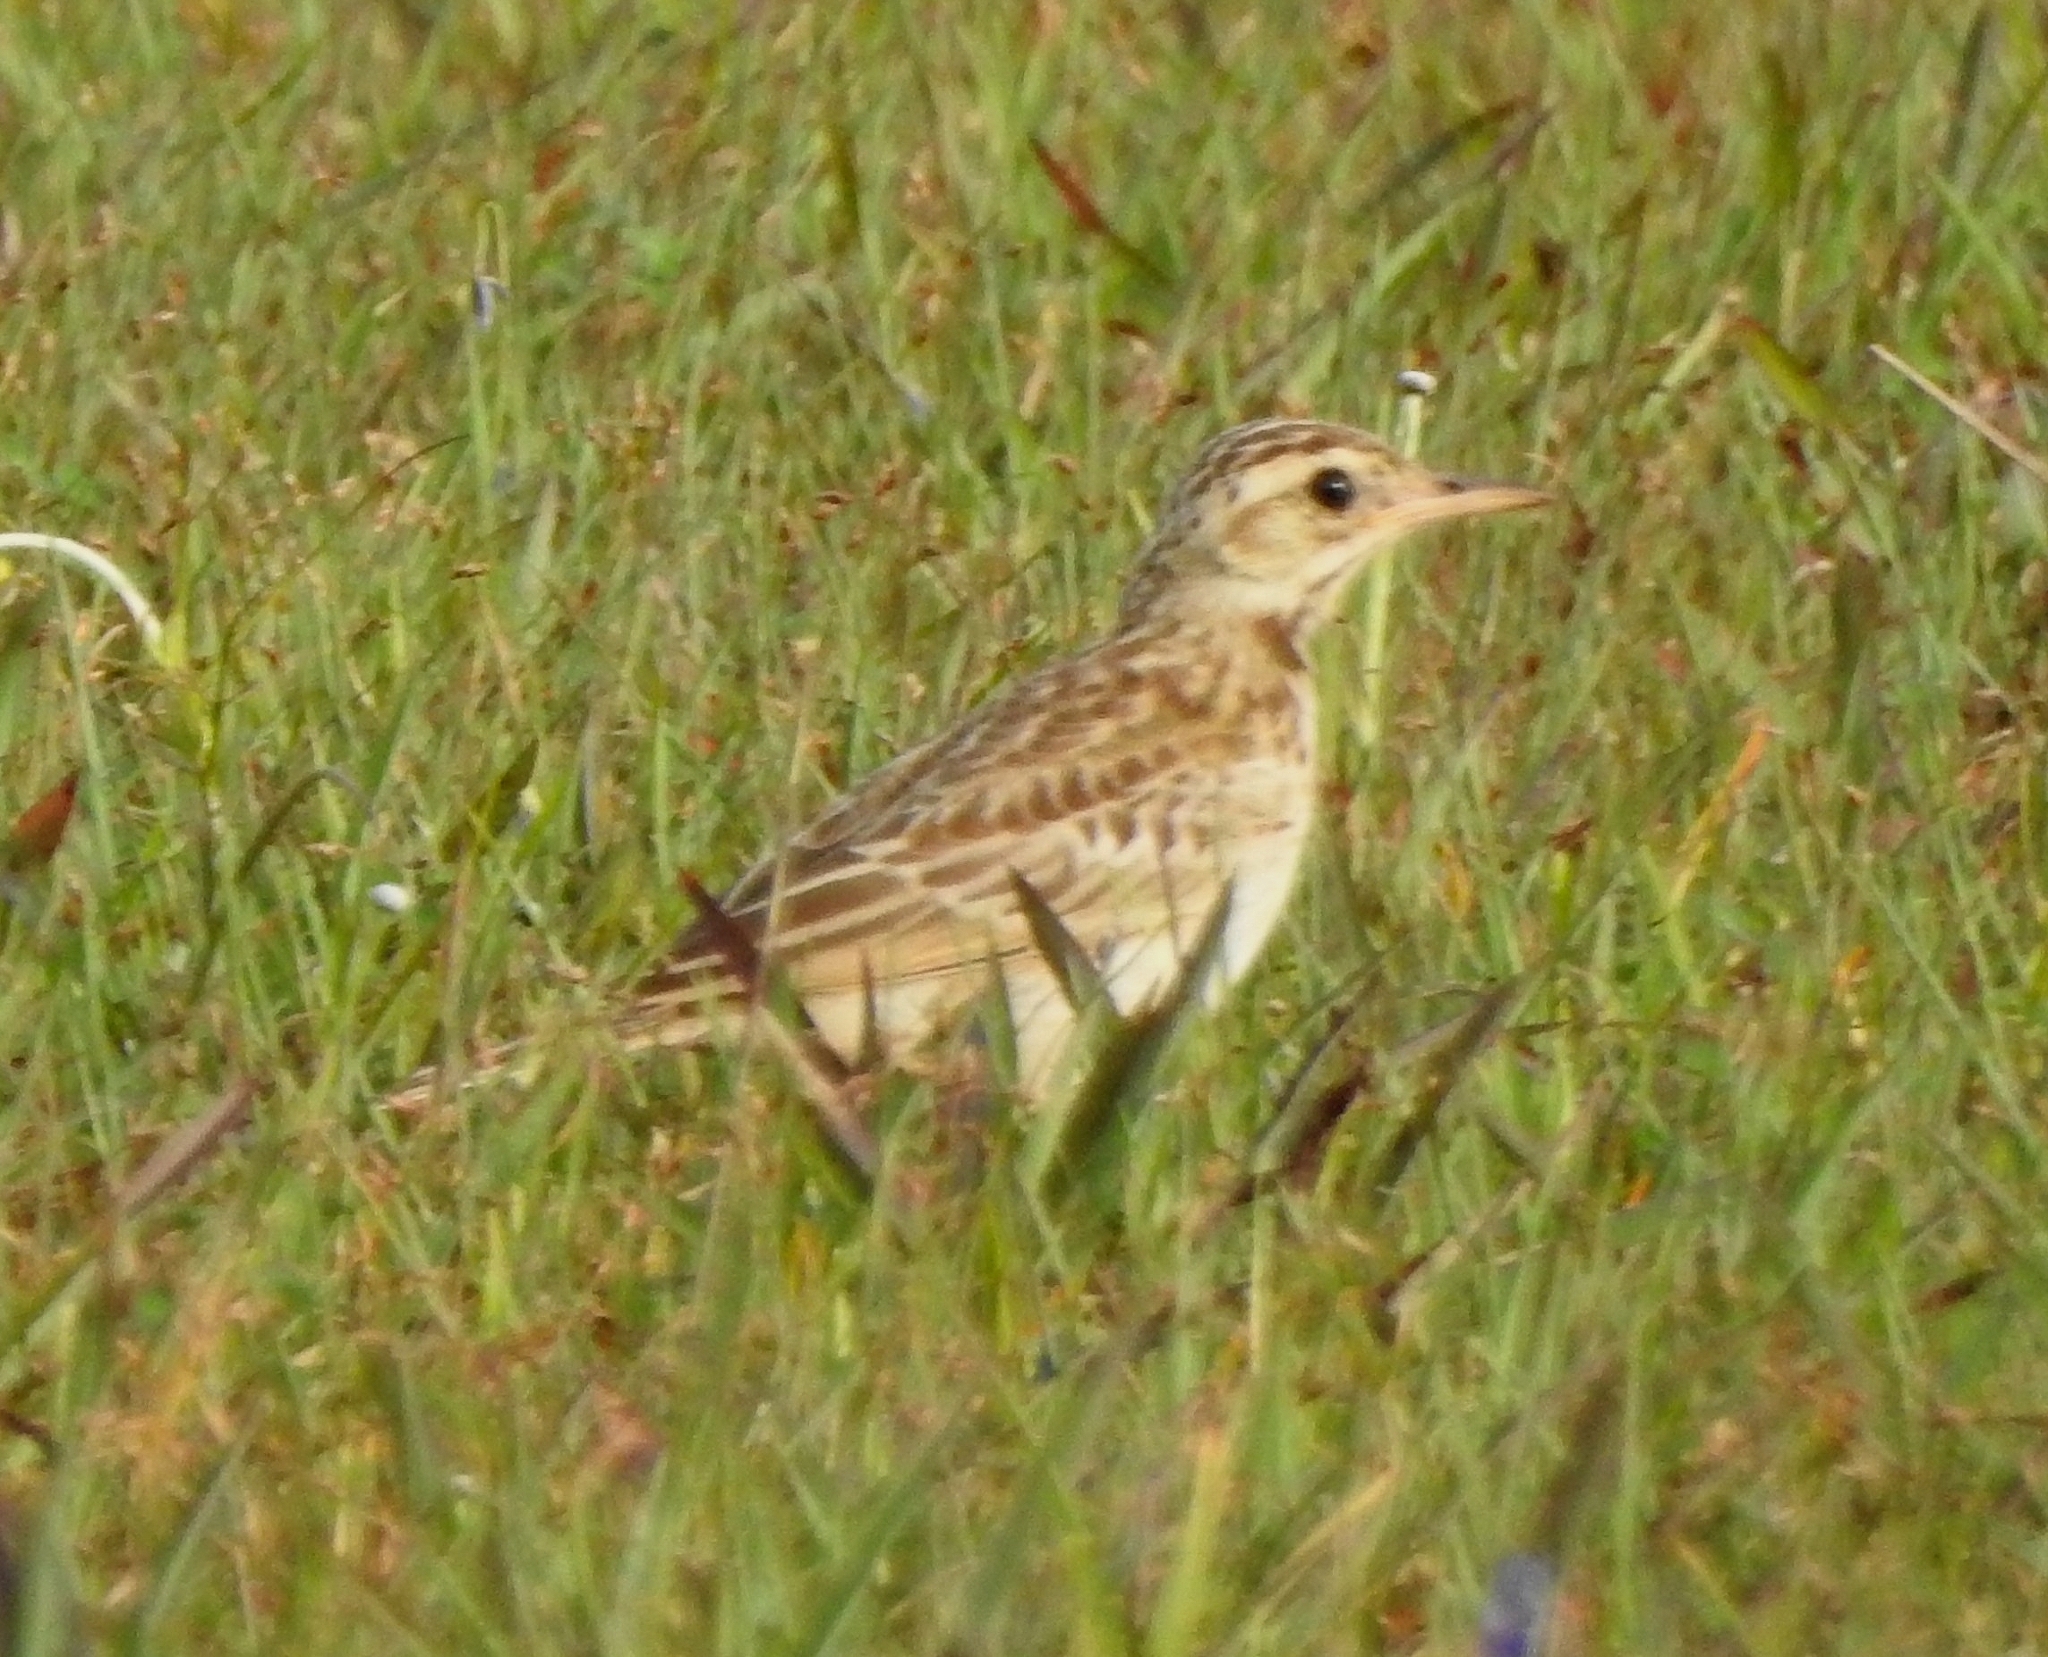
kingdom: Animalia
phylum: Chordata
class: Aves
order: Passeriformes
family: Motacillidae
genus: Anthus
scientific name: Anthus rufulus
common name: Paddyfield pipit
